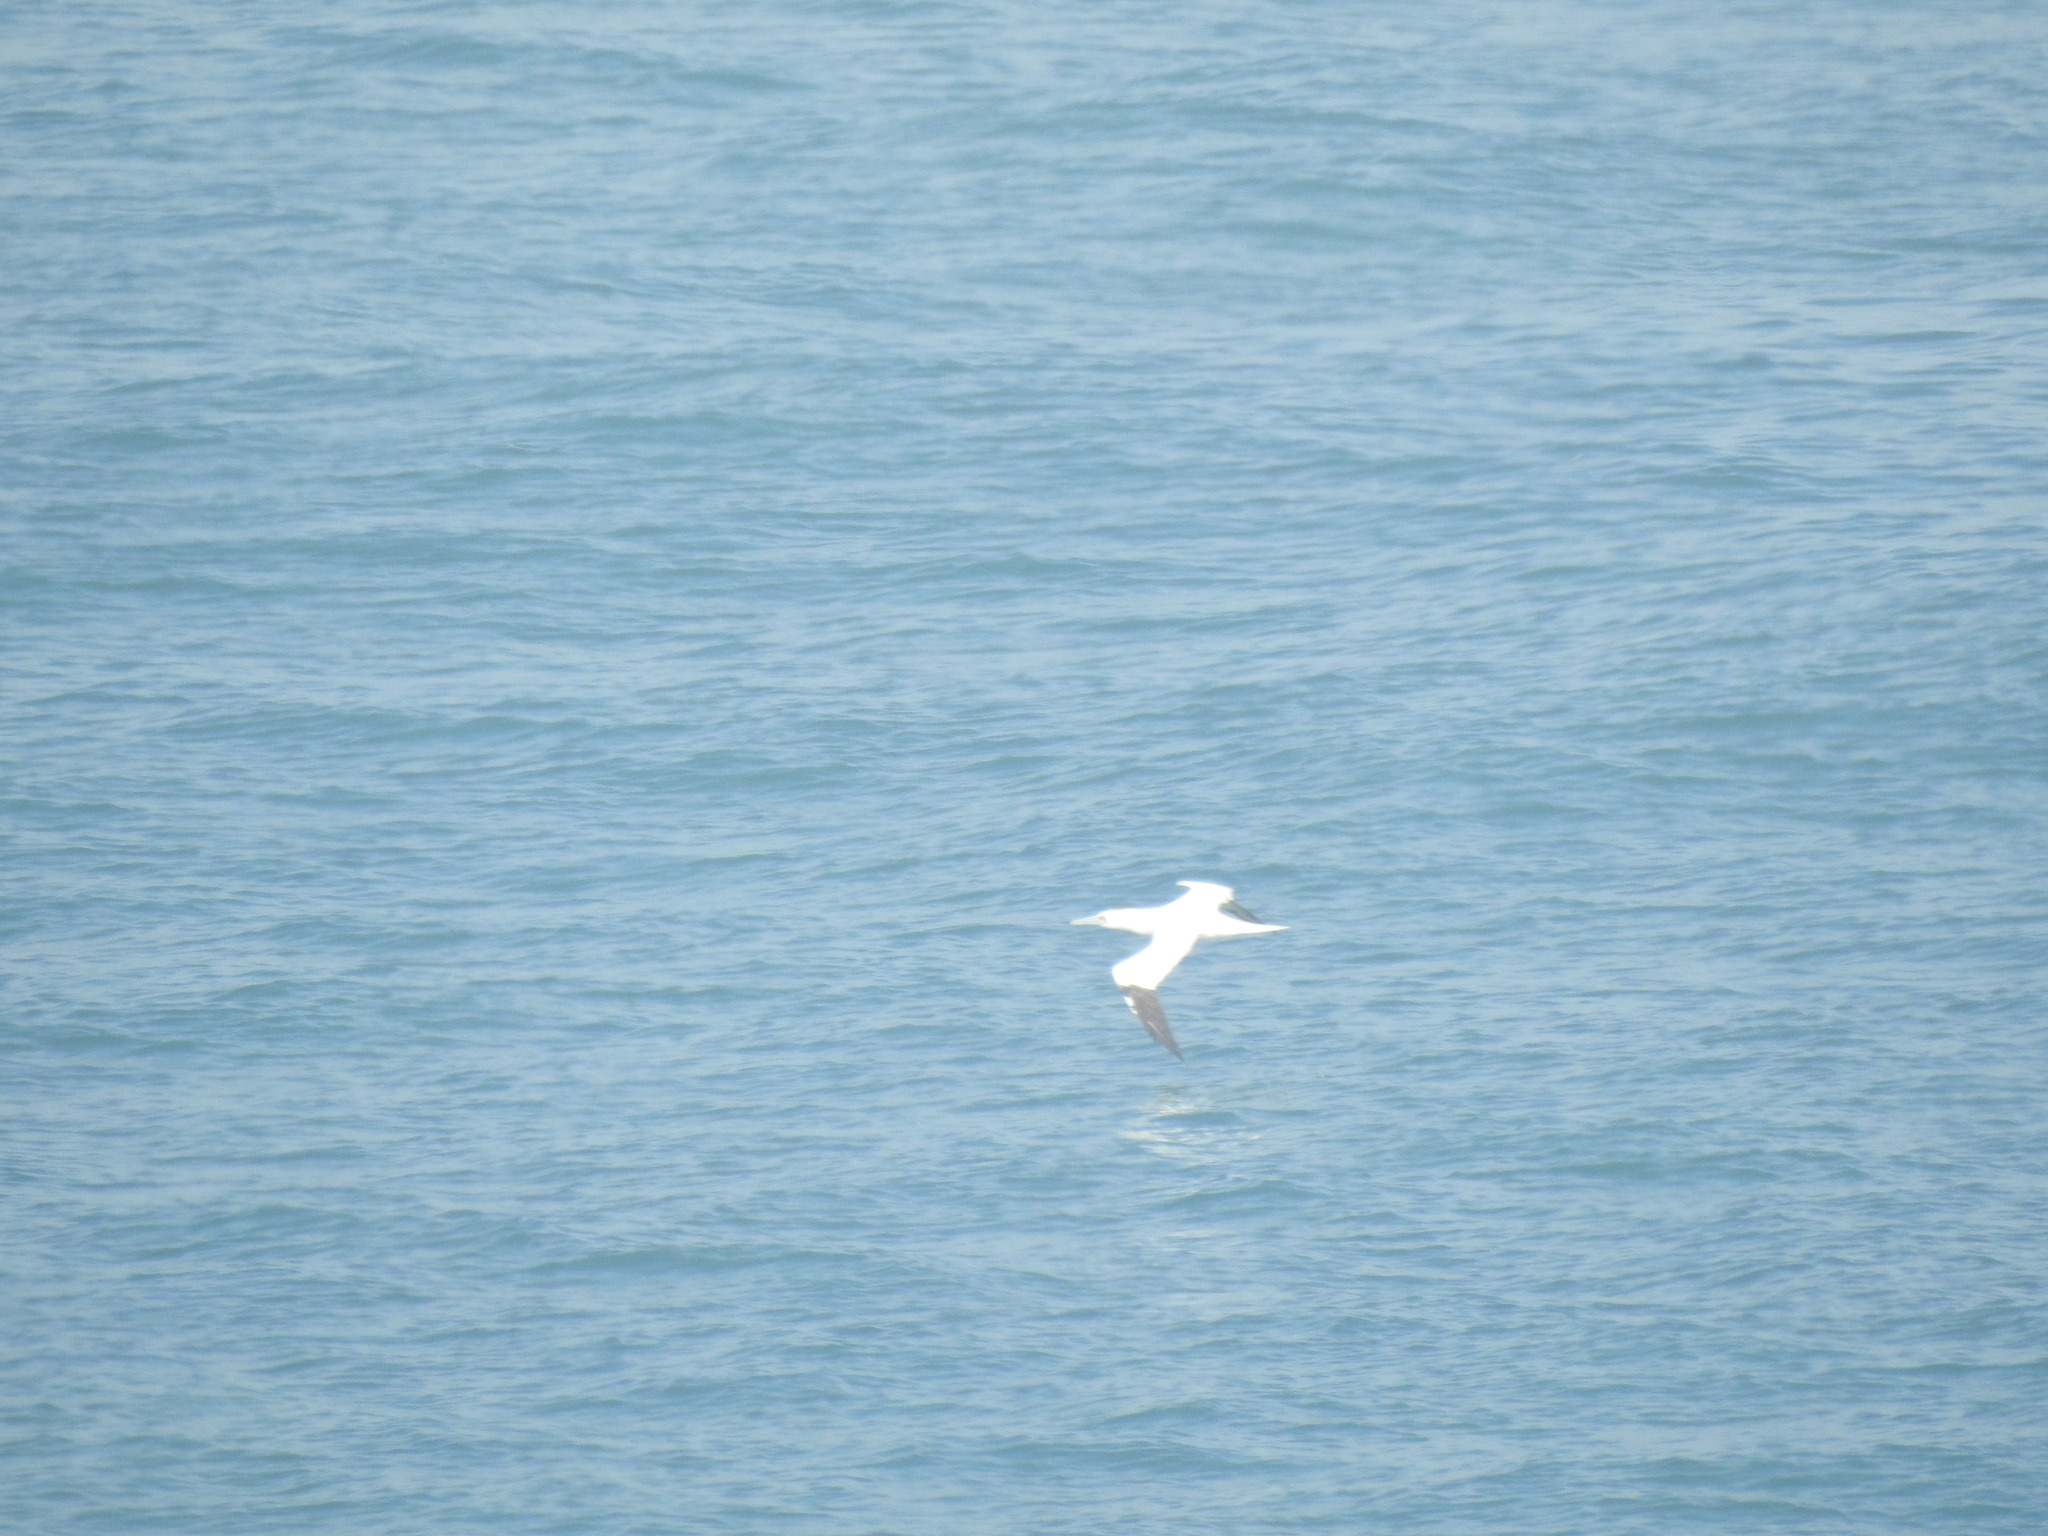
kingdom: Animalia
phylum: Chordata
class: Aves
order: Suliformes
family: Sulidae
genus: Morus
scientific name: Morus bassanus
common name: Northern gannet
